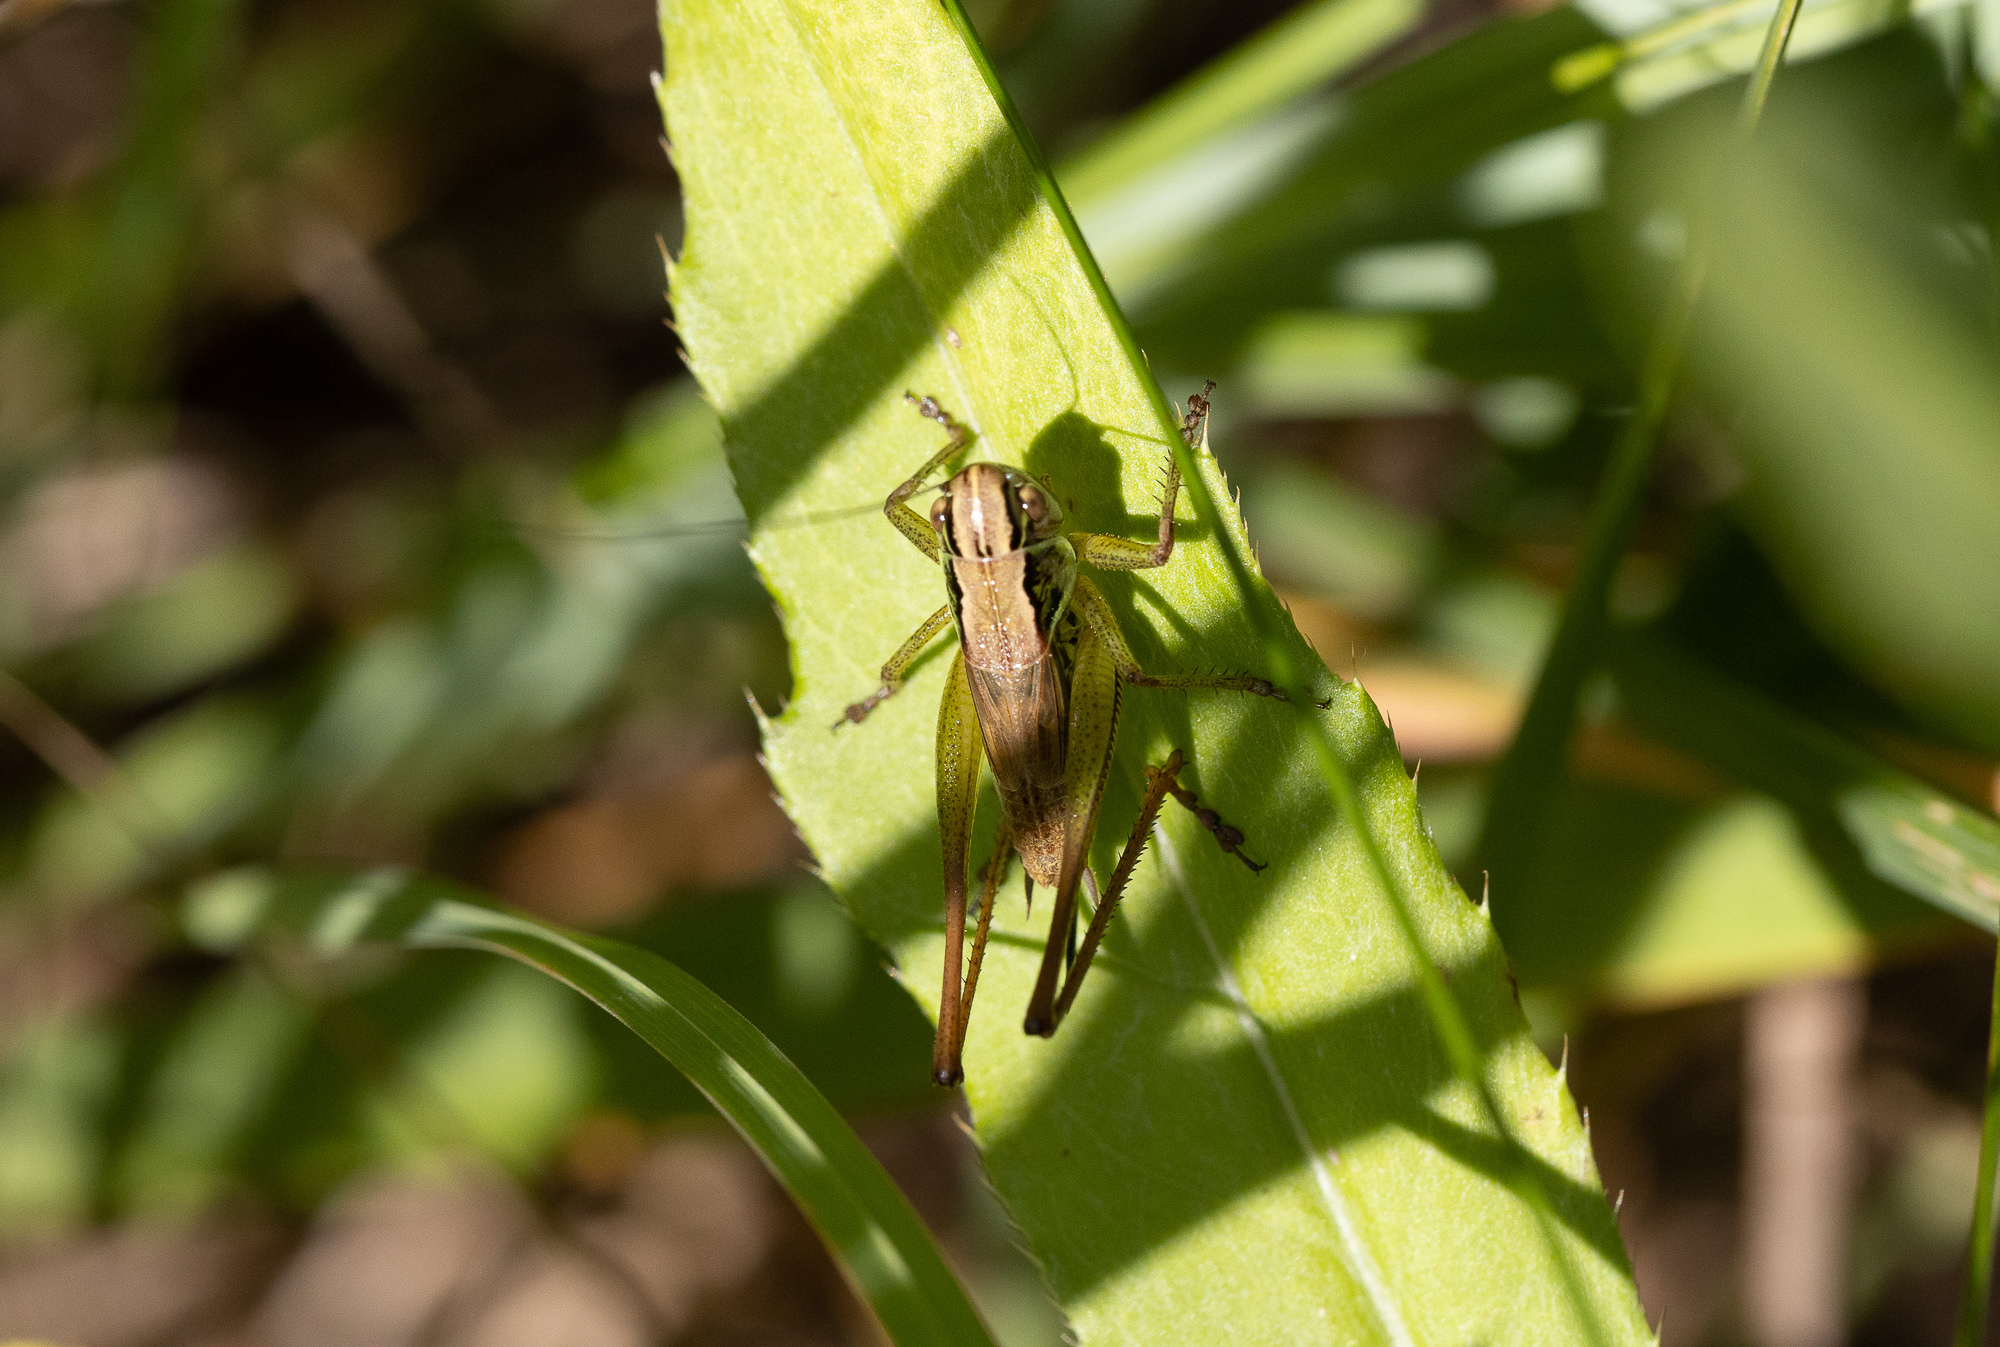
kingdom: Animalia
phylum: Arthropoda
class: Insecta
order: Orthoptera
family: Tettigoniidae
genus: Roeseliana
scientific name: Roeseliana roeselii
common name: Roesel's bush cricket
